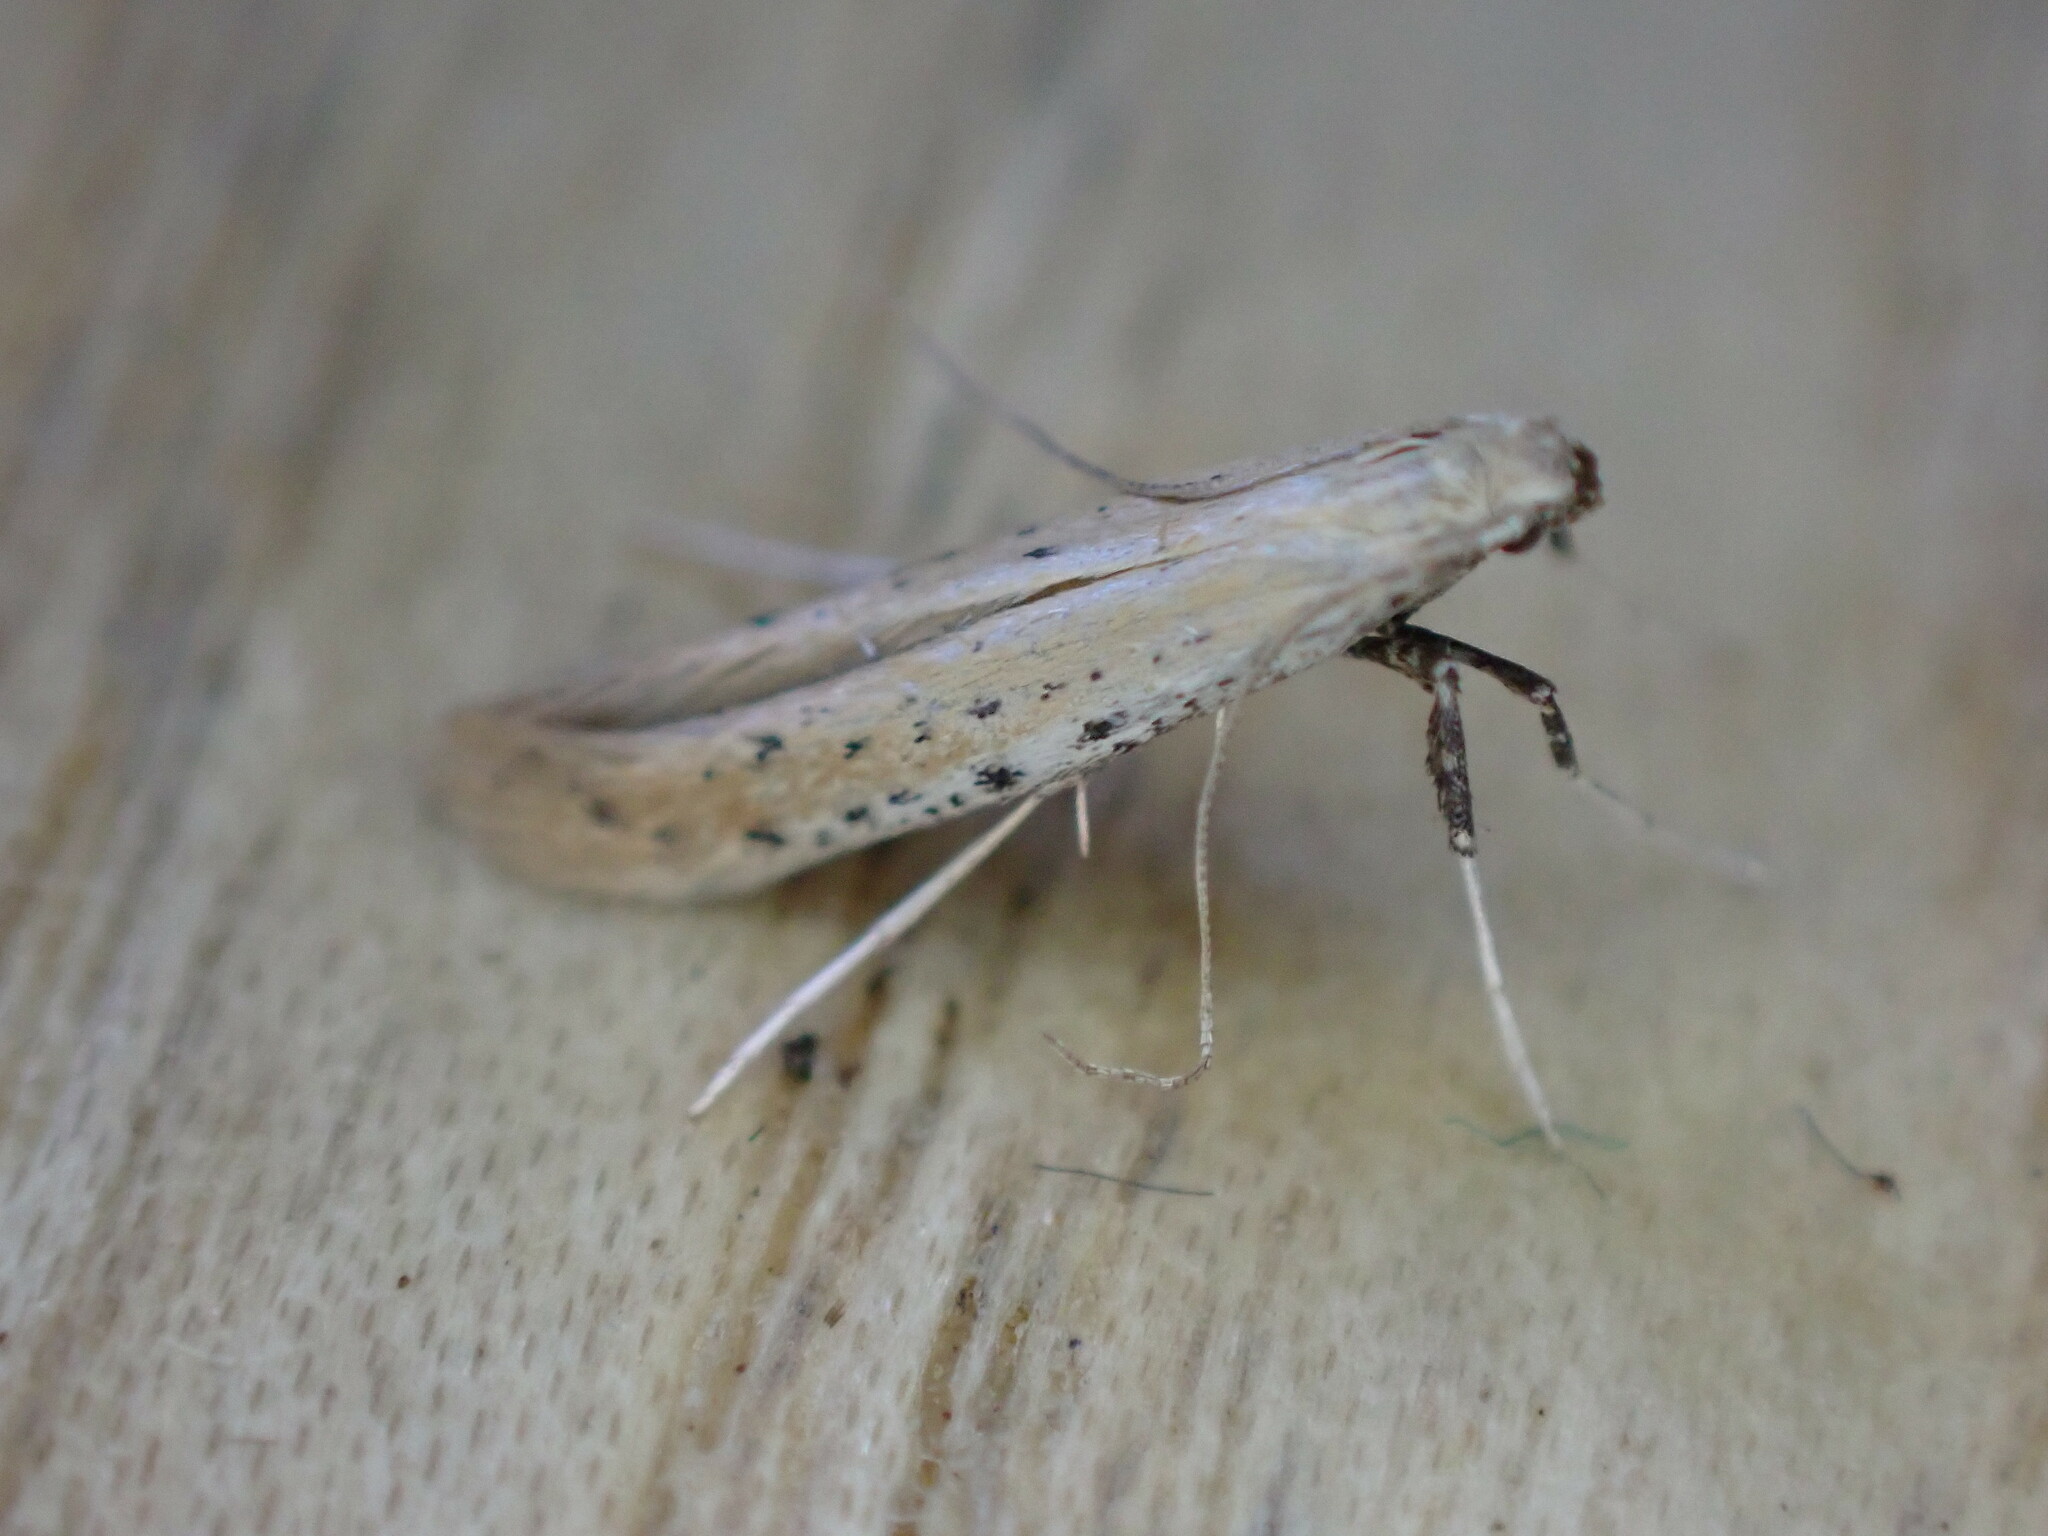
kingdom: Animalia
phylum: Arthropoda
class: Insecta
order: Lepidoptera
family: Gracillariidae
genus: Aspilapteryx
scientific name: Aspilapteryx tringipennella
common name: Ribwort slender
